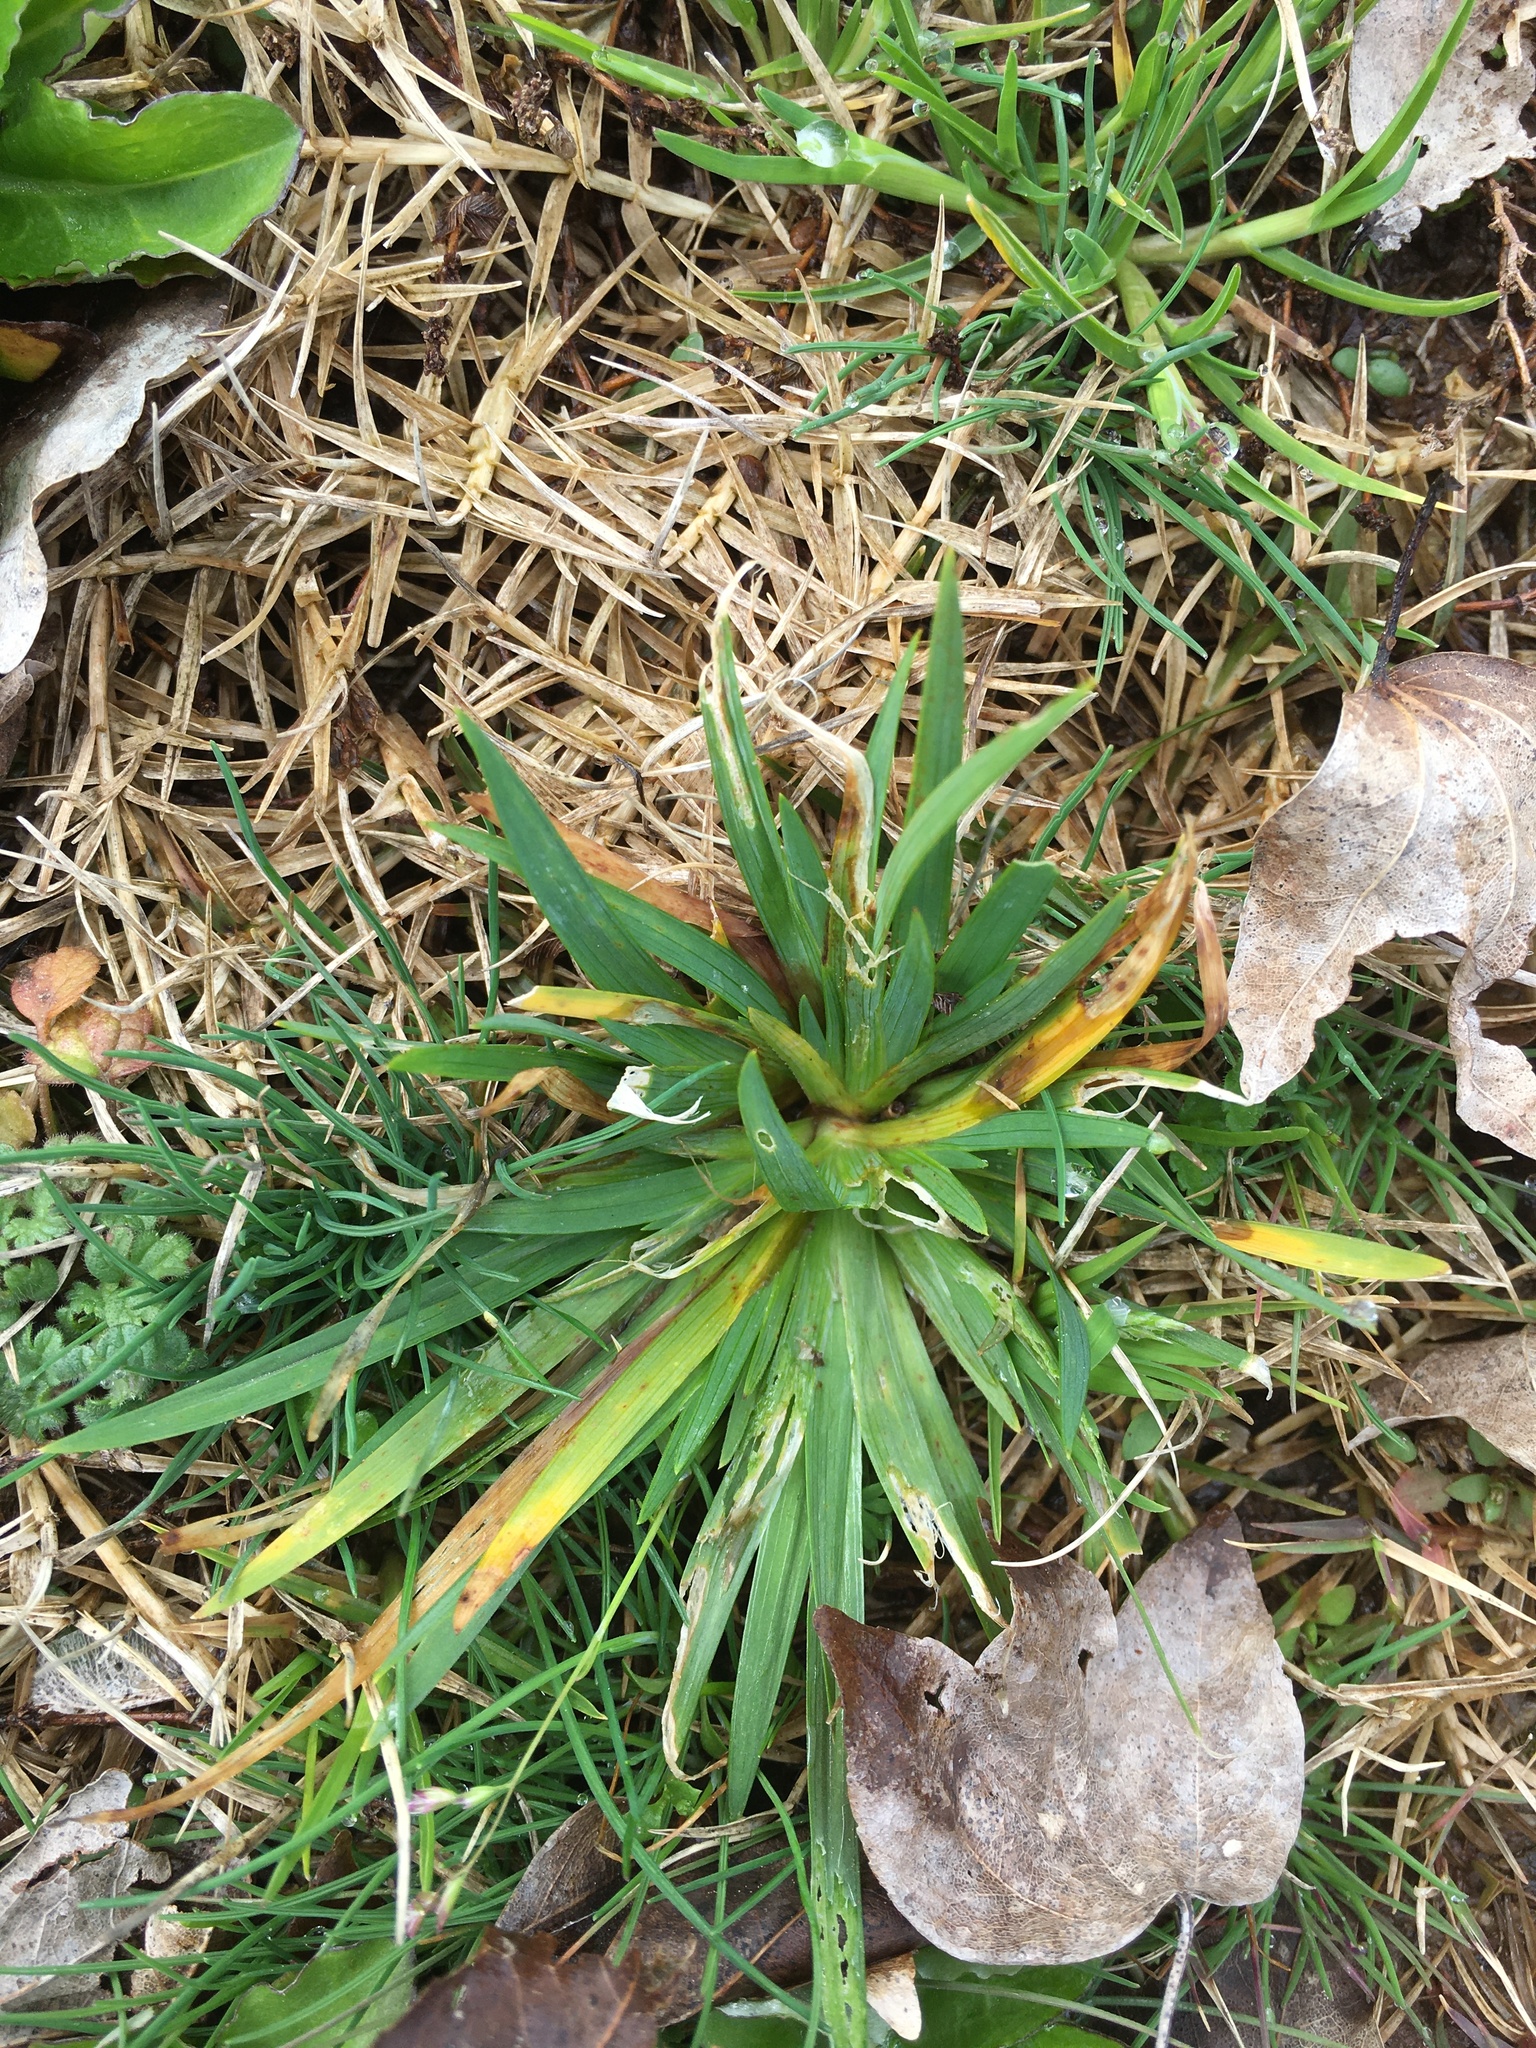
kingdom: Plantae
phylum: Tracheophyta
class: Liliopsida
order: Asparagales
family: Iridaceae
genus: Sisyrinchium
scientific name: Sisyrinchium micranthum
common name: Bermuda pigroot
